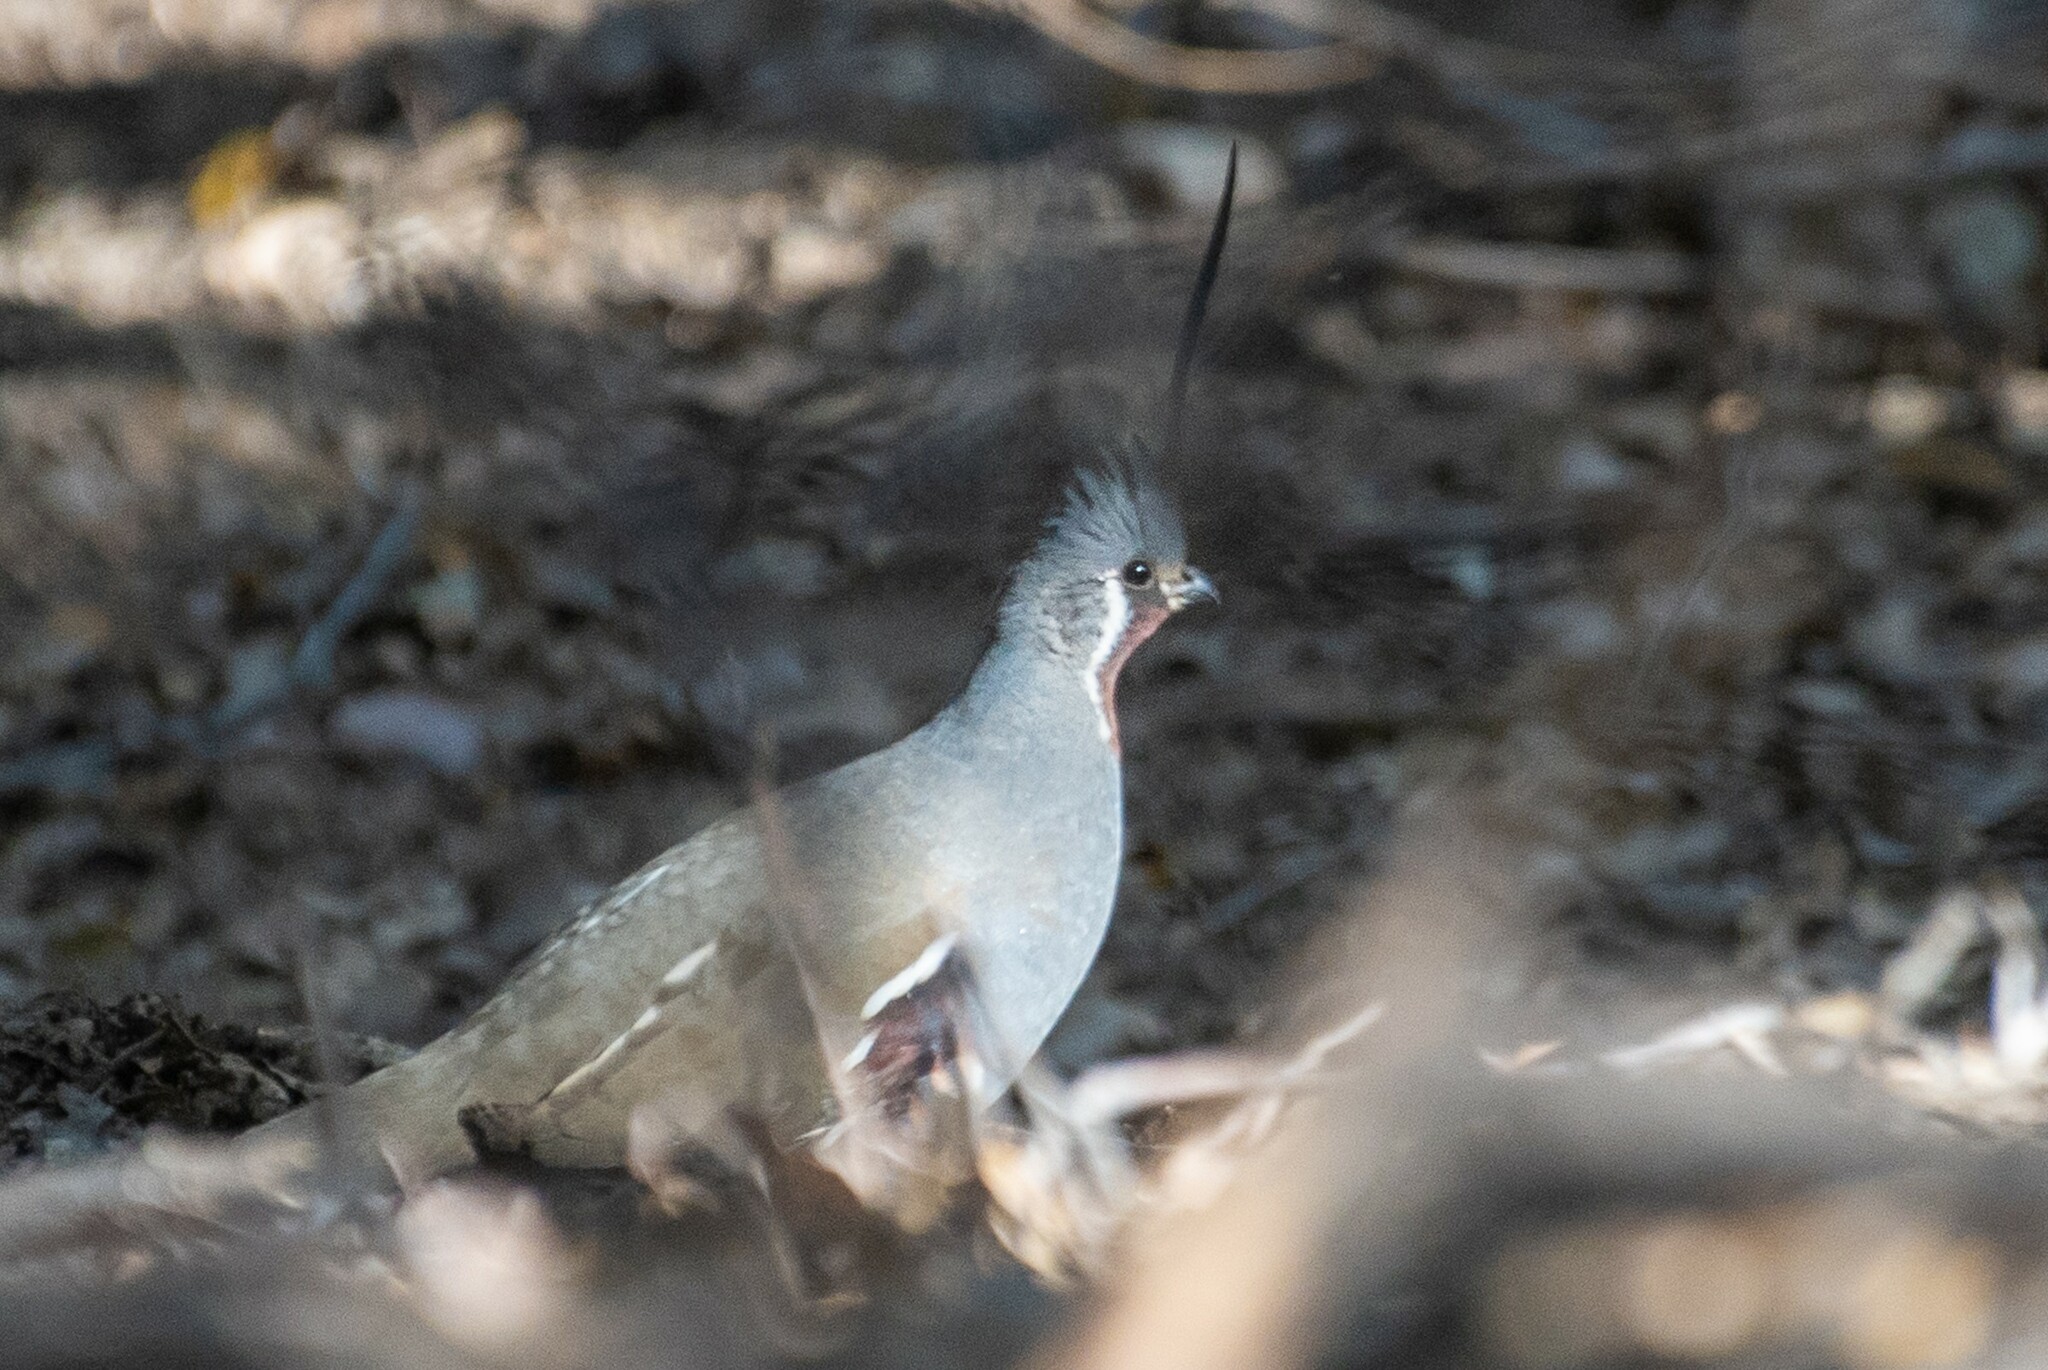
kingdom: Animalia
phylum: Chordata
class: Aves
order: Galliformes
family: Odontophoridae
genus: Oreortyx
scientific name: Oreortyx pictus
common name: Mountain quail
